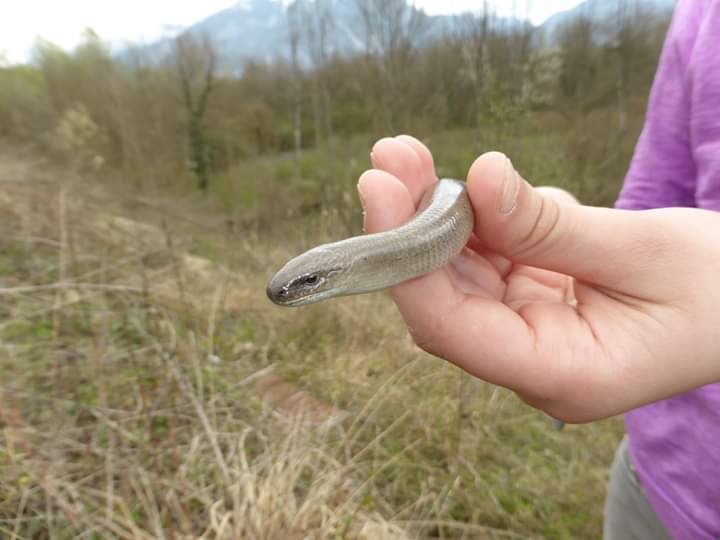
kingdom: Animalia
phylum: Chordata
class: Squamata
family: Anguidae
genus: Anguis
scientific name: Anguis fragilis
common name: Slow worm
